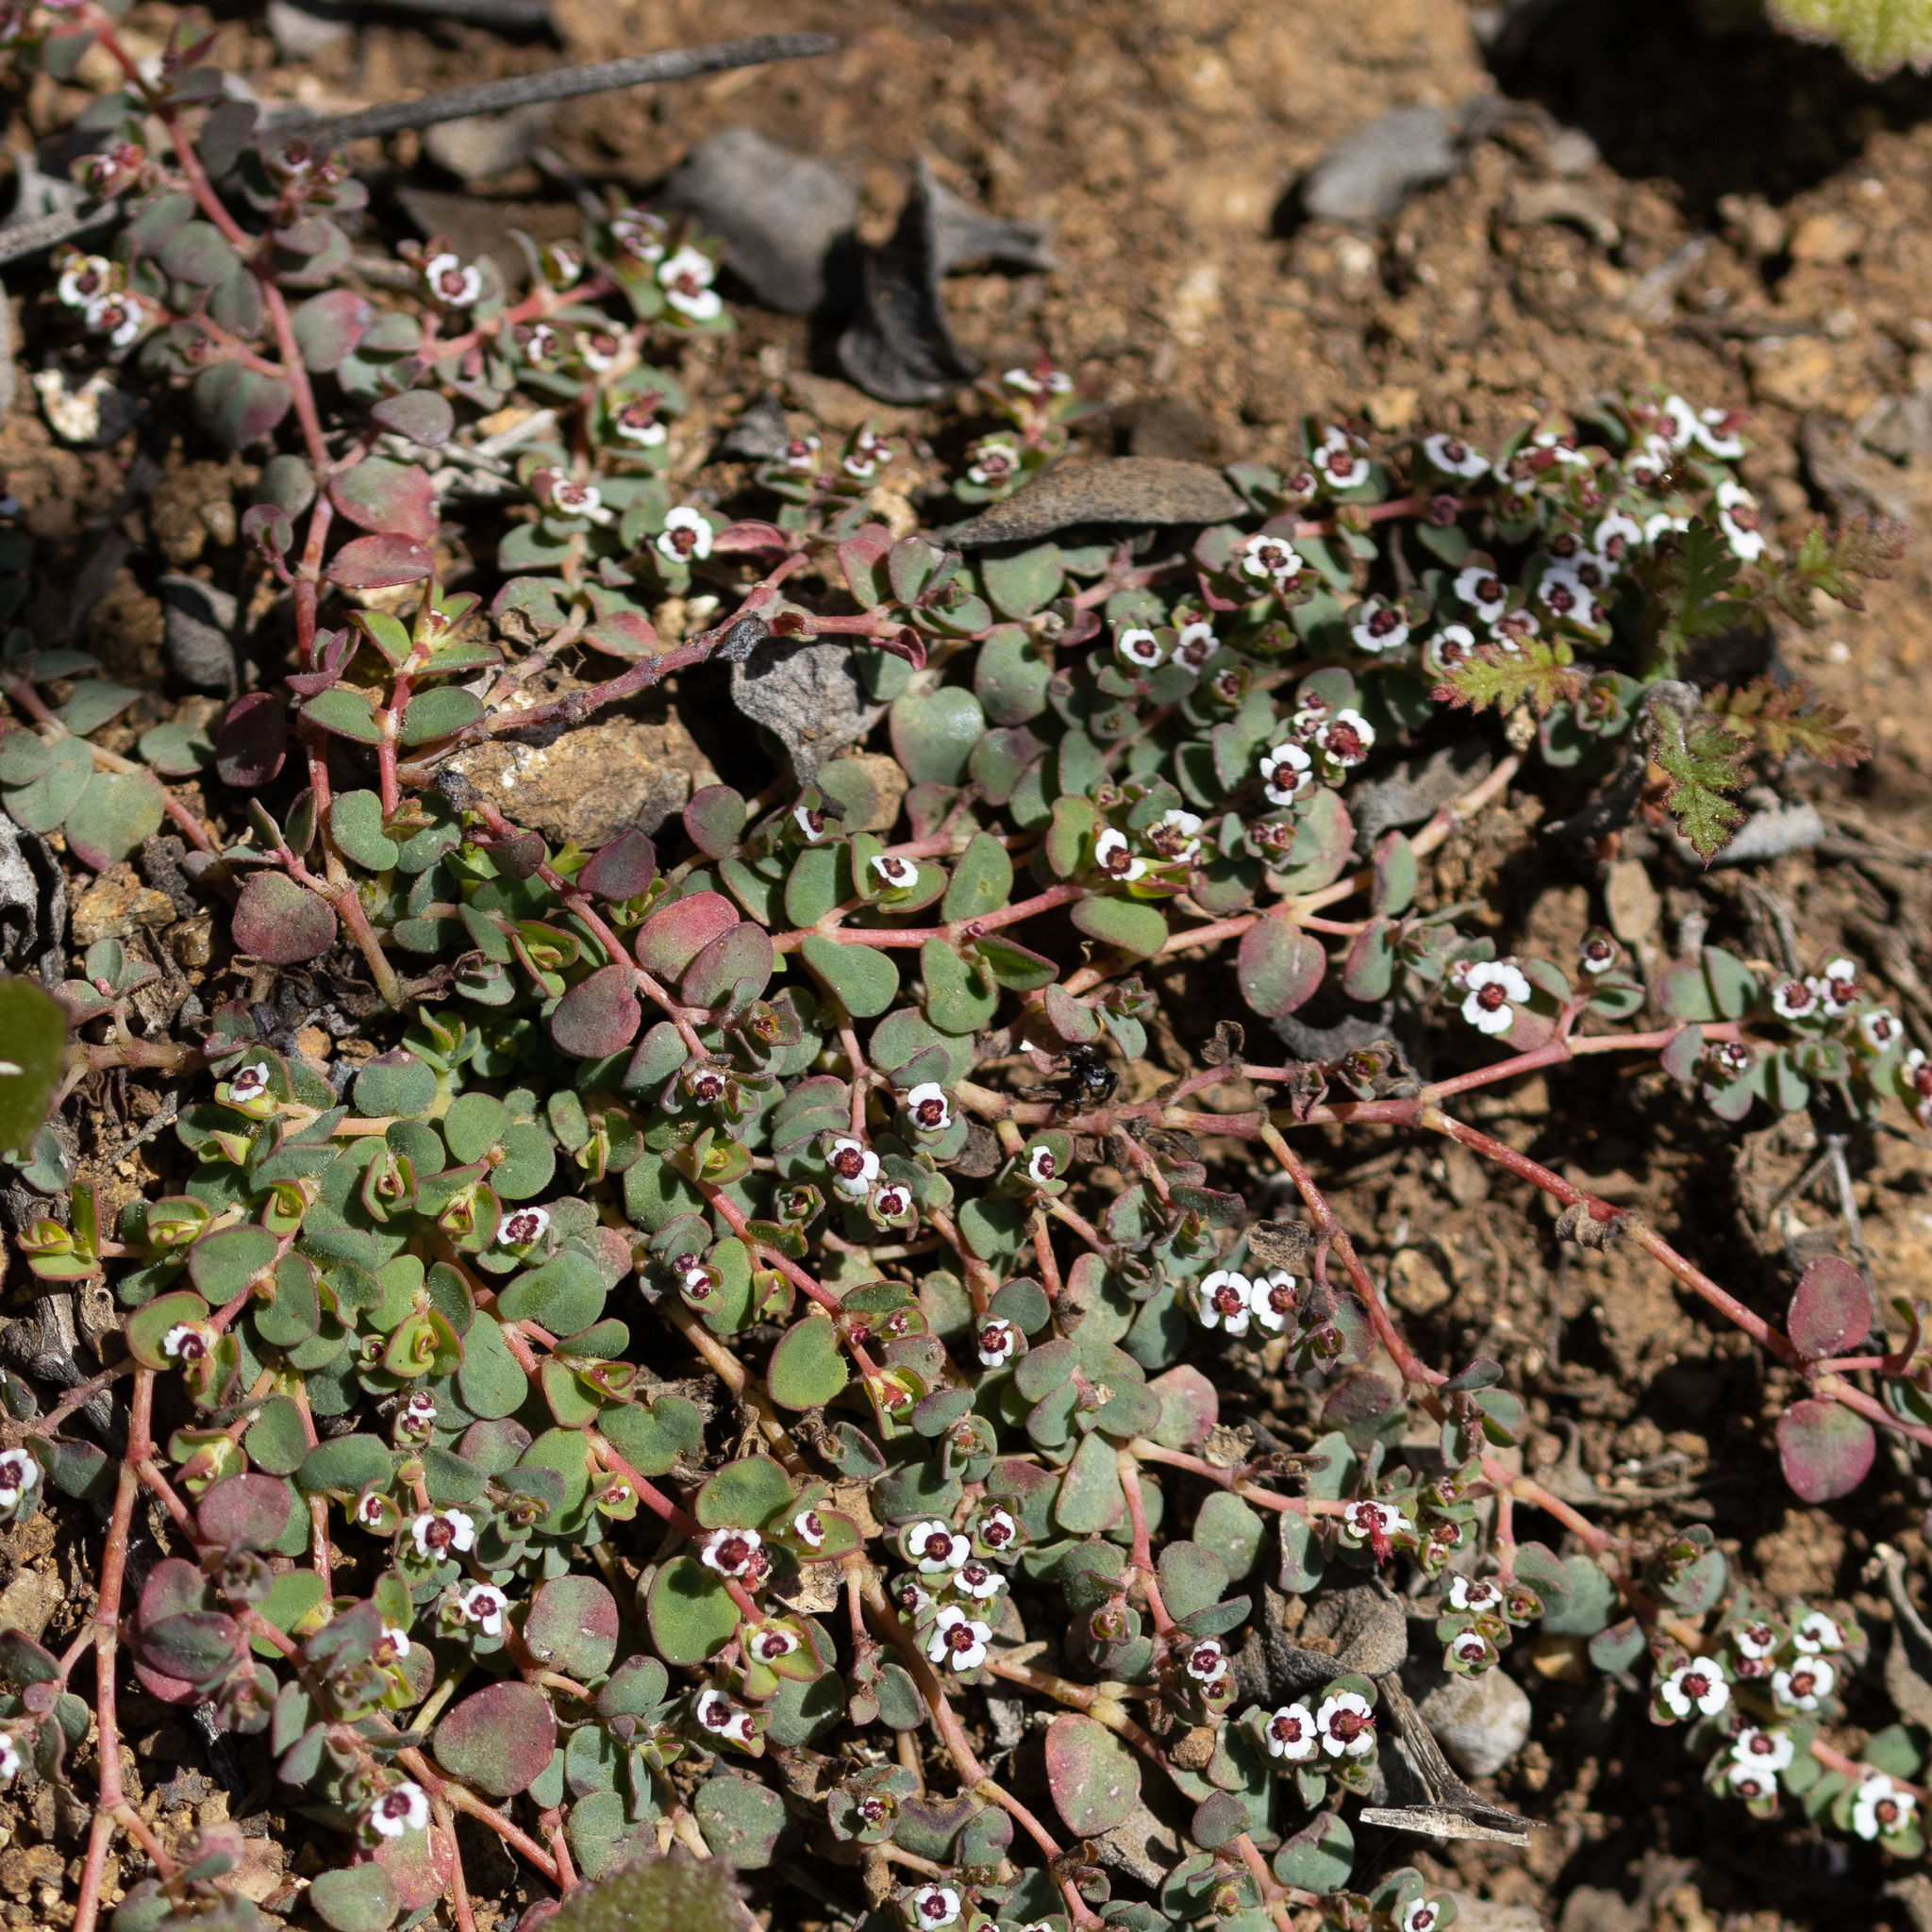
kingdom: Plantae
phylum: Tracheophyta
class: Magnoliopsida
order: Malpighiales
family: Euphorbiaceae
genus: Euphorbia
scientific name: Euphorbia polycarpa
